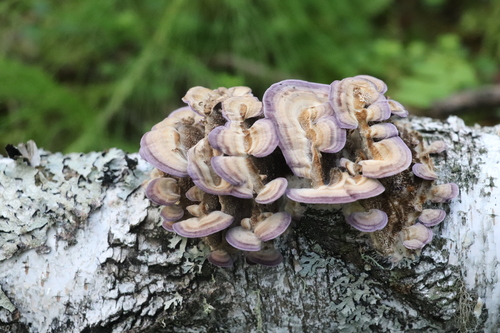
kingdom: Fungi
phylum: Basidiomycota
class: Agaricomycetes
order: Hymenochaetales
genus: Trichaptum
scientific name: Trichaptum biforme
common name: Violet-toothed polypore
